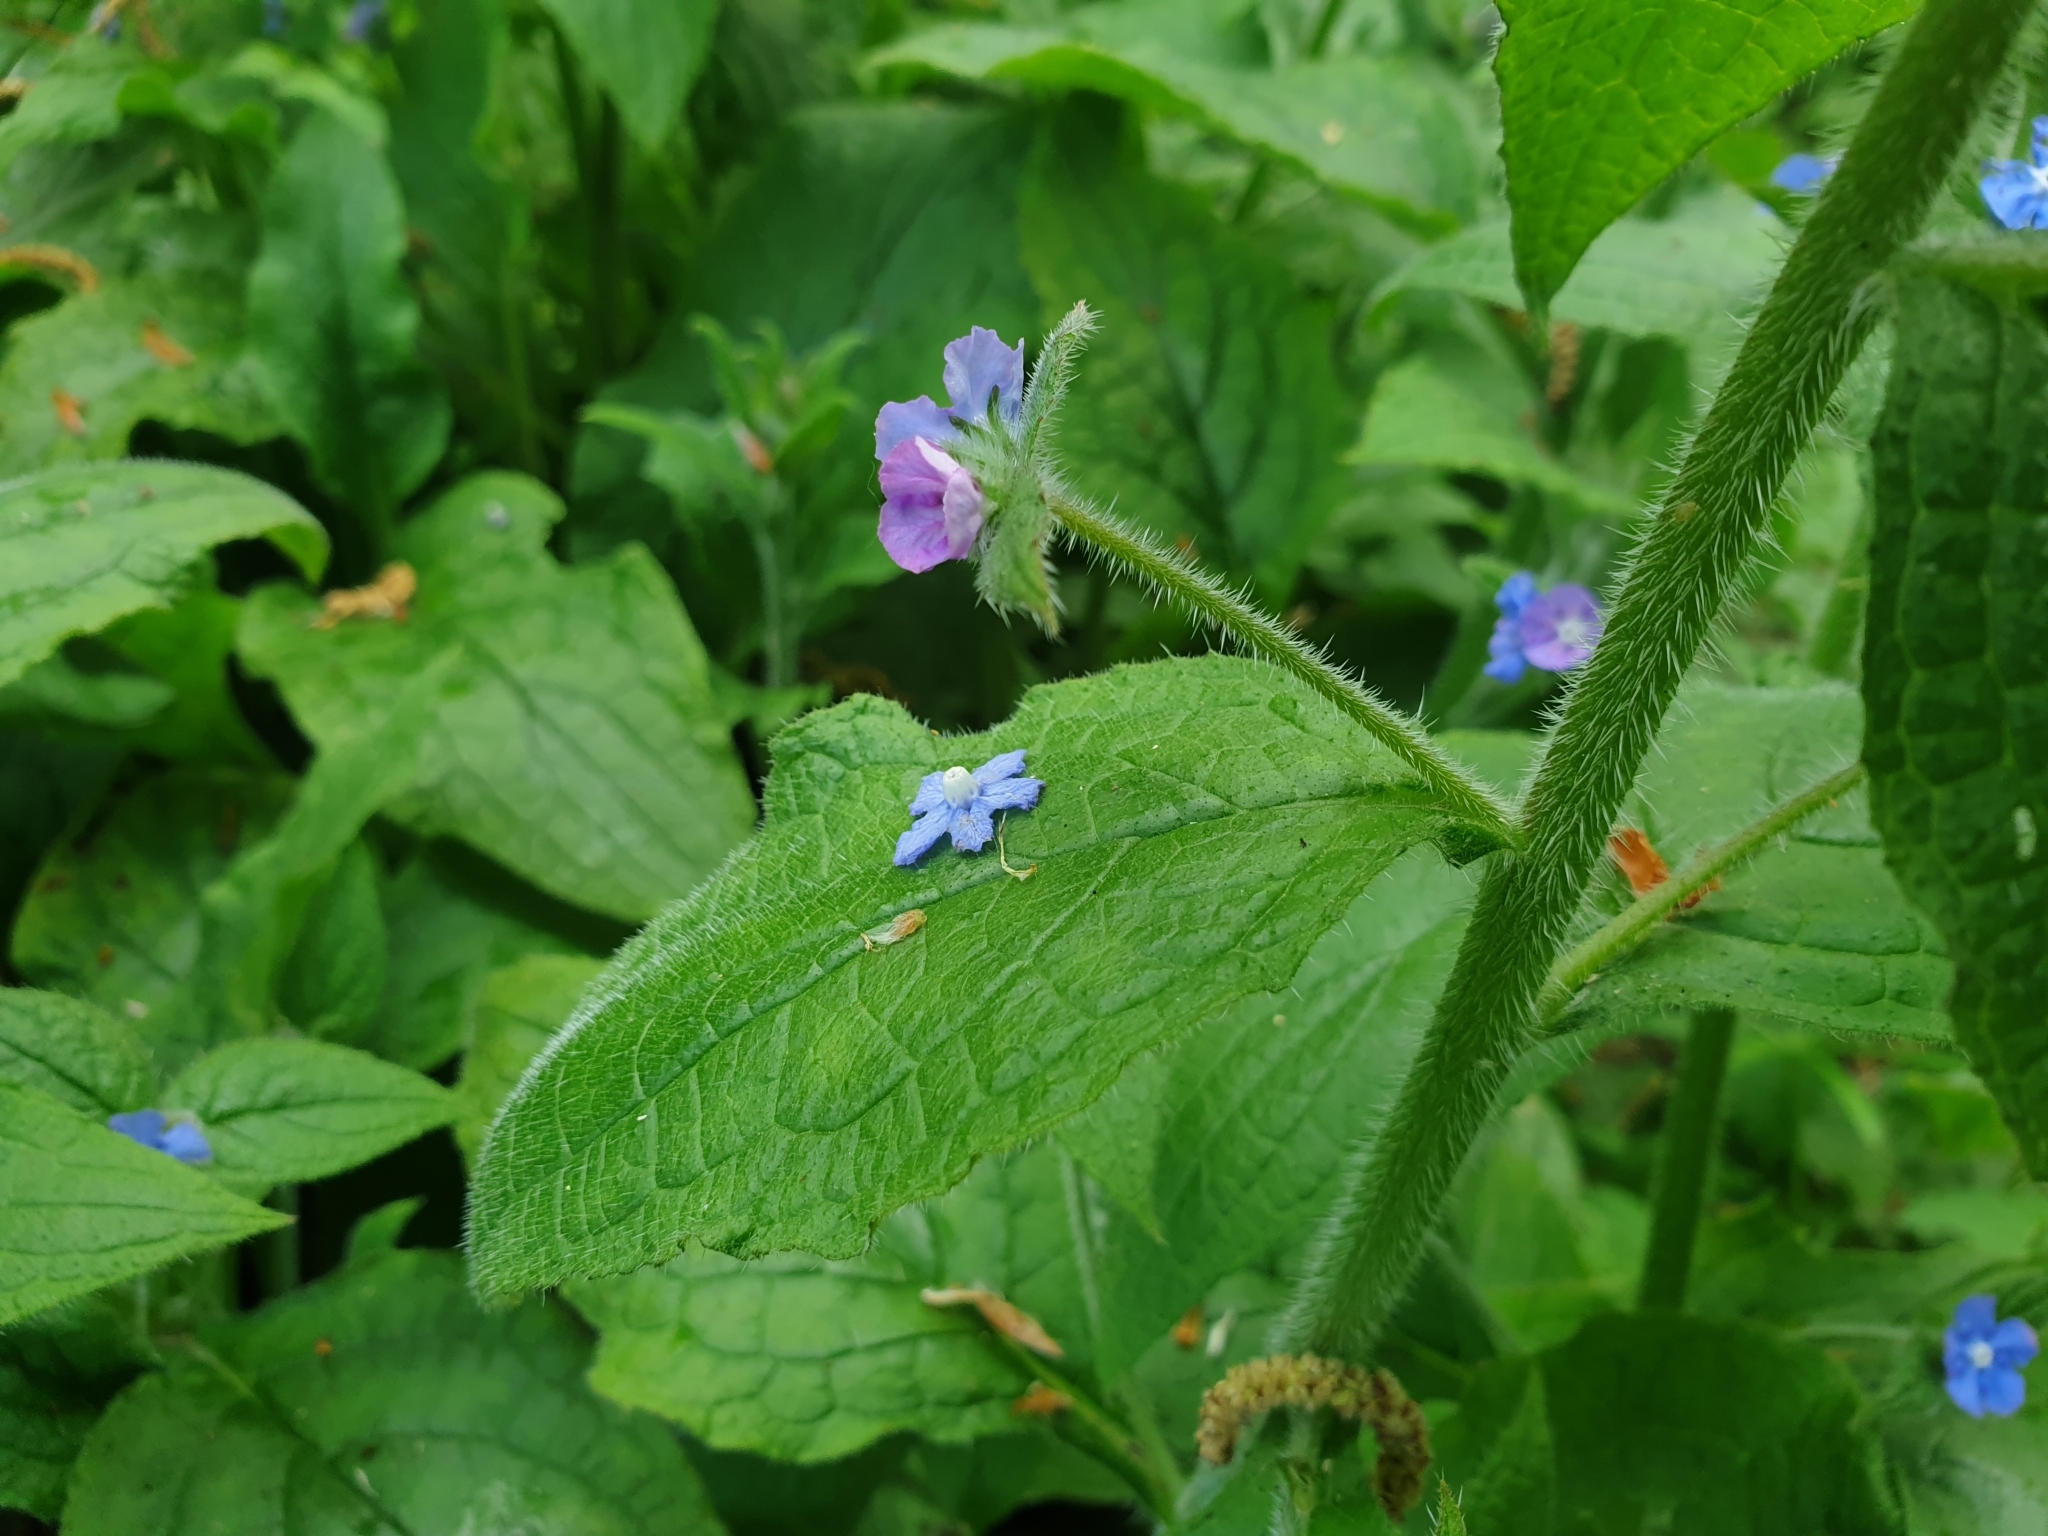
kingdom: Plantae
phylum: Tracheophyta
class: Magnoliopsida
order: Boraginales
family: Boraginaceae
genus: Pentaglottis
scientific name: Pentaglottis sempervirens
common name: Green alkanet
